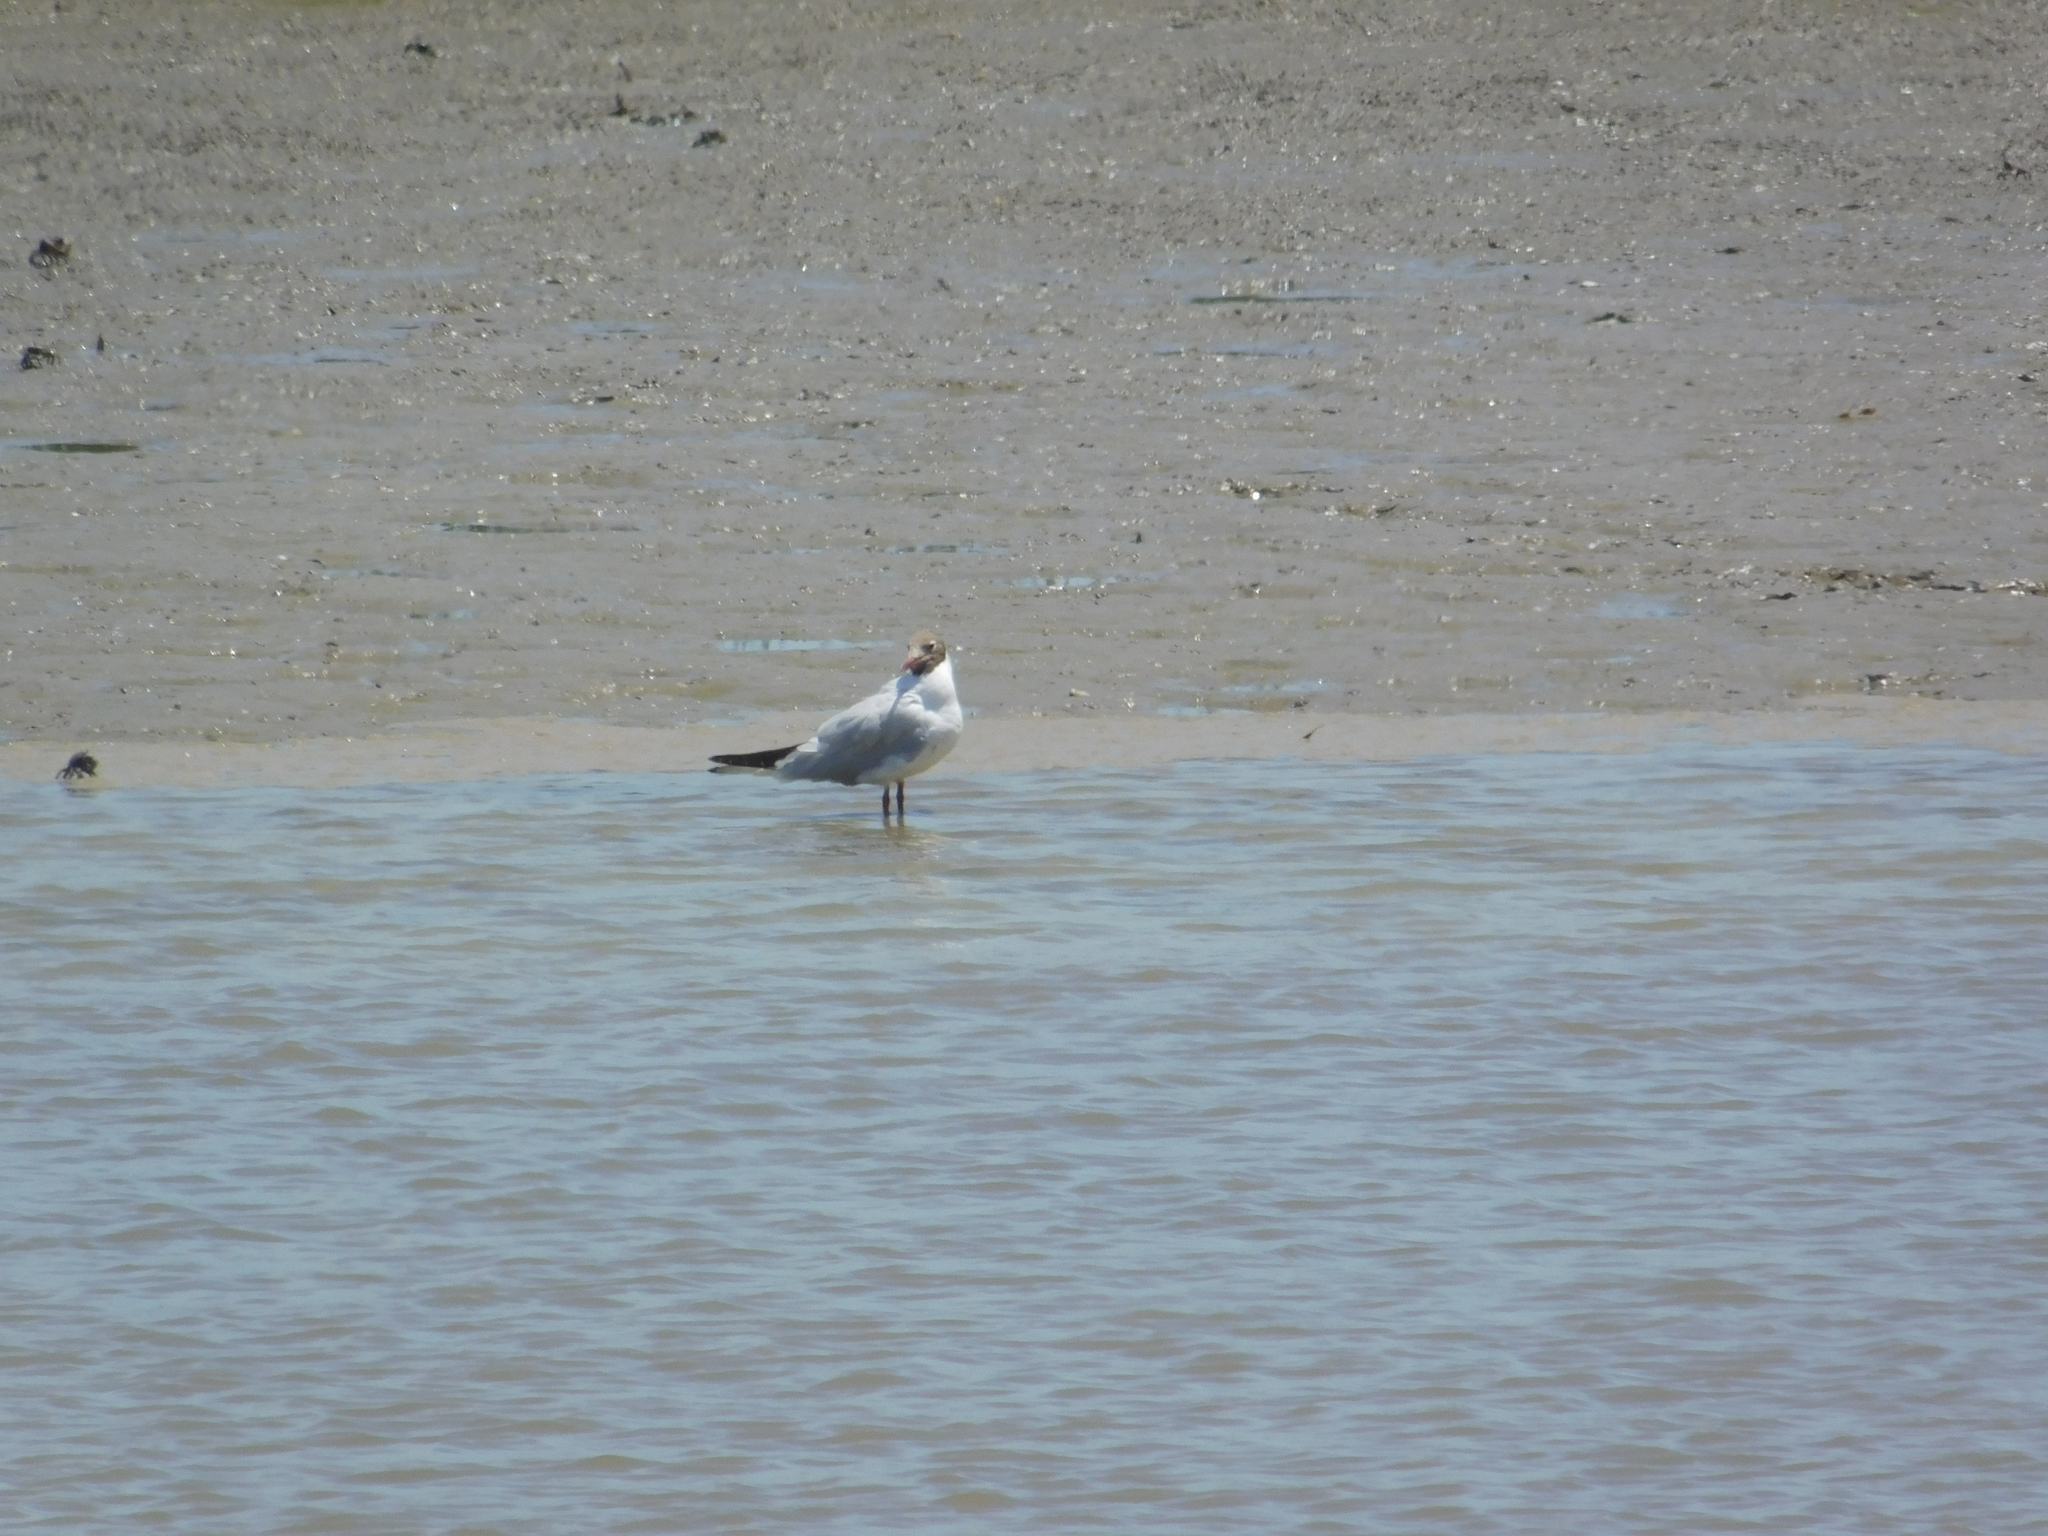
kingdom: Animalia
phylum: Chordata
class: Aves
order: Charadriiformes
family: Laridae
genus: Chroicocephalus
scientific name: Chroicocephalus maculipennis
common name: Brown-hooded gull
